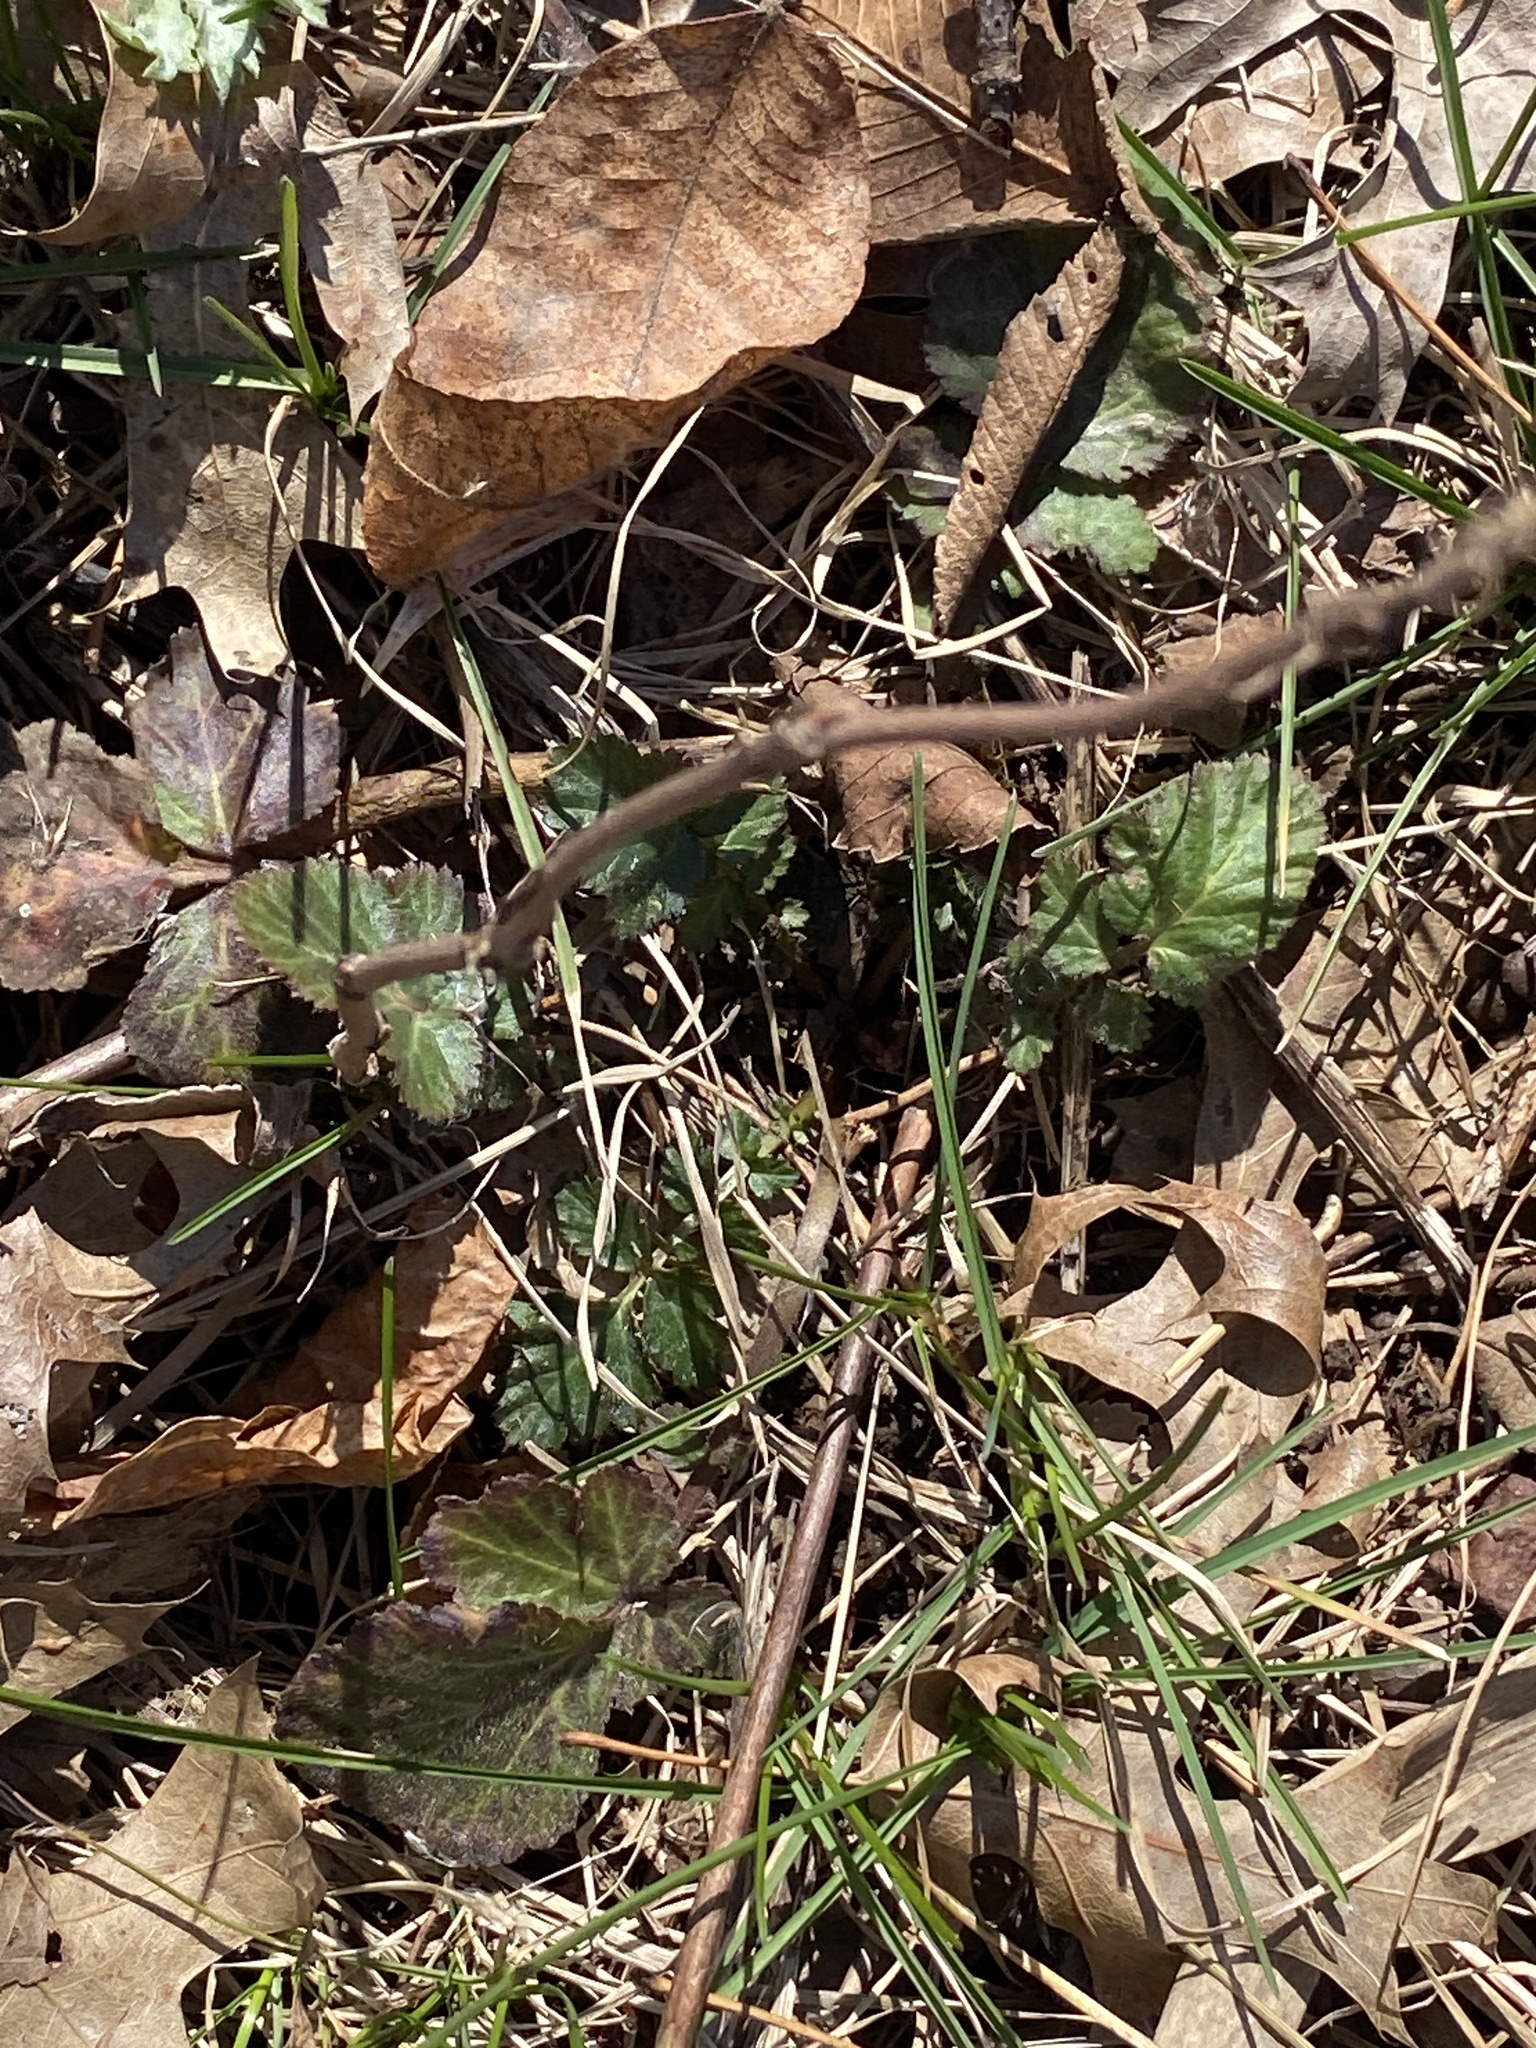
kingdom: Plantae
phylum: Tracheophyta
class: Magnoliopsida
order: Rosales
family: Rosaceae
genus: Geum
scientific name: Geum canadense
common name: White avens
